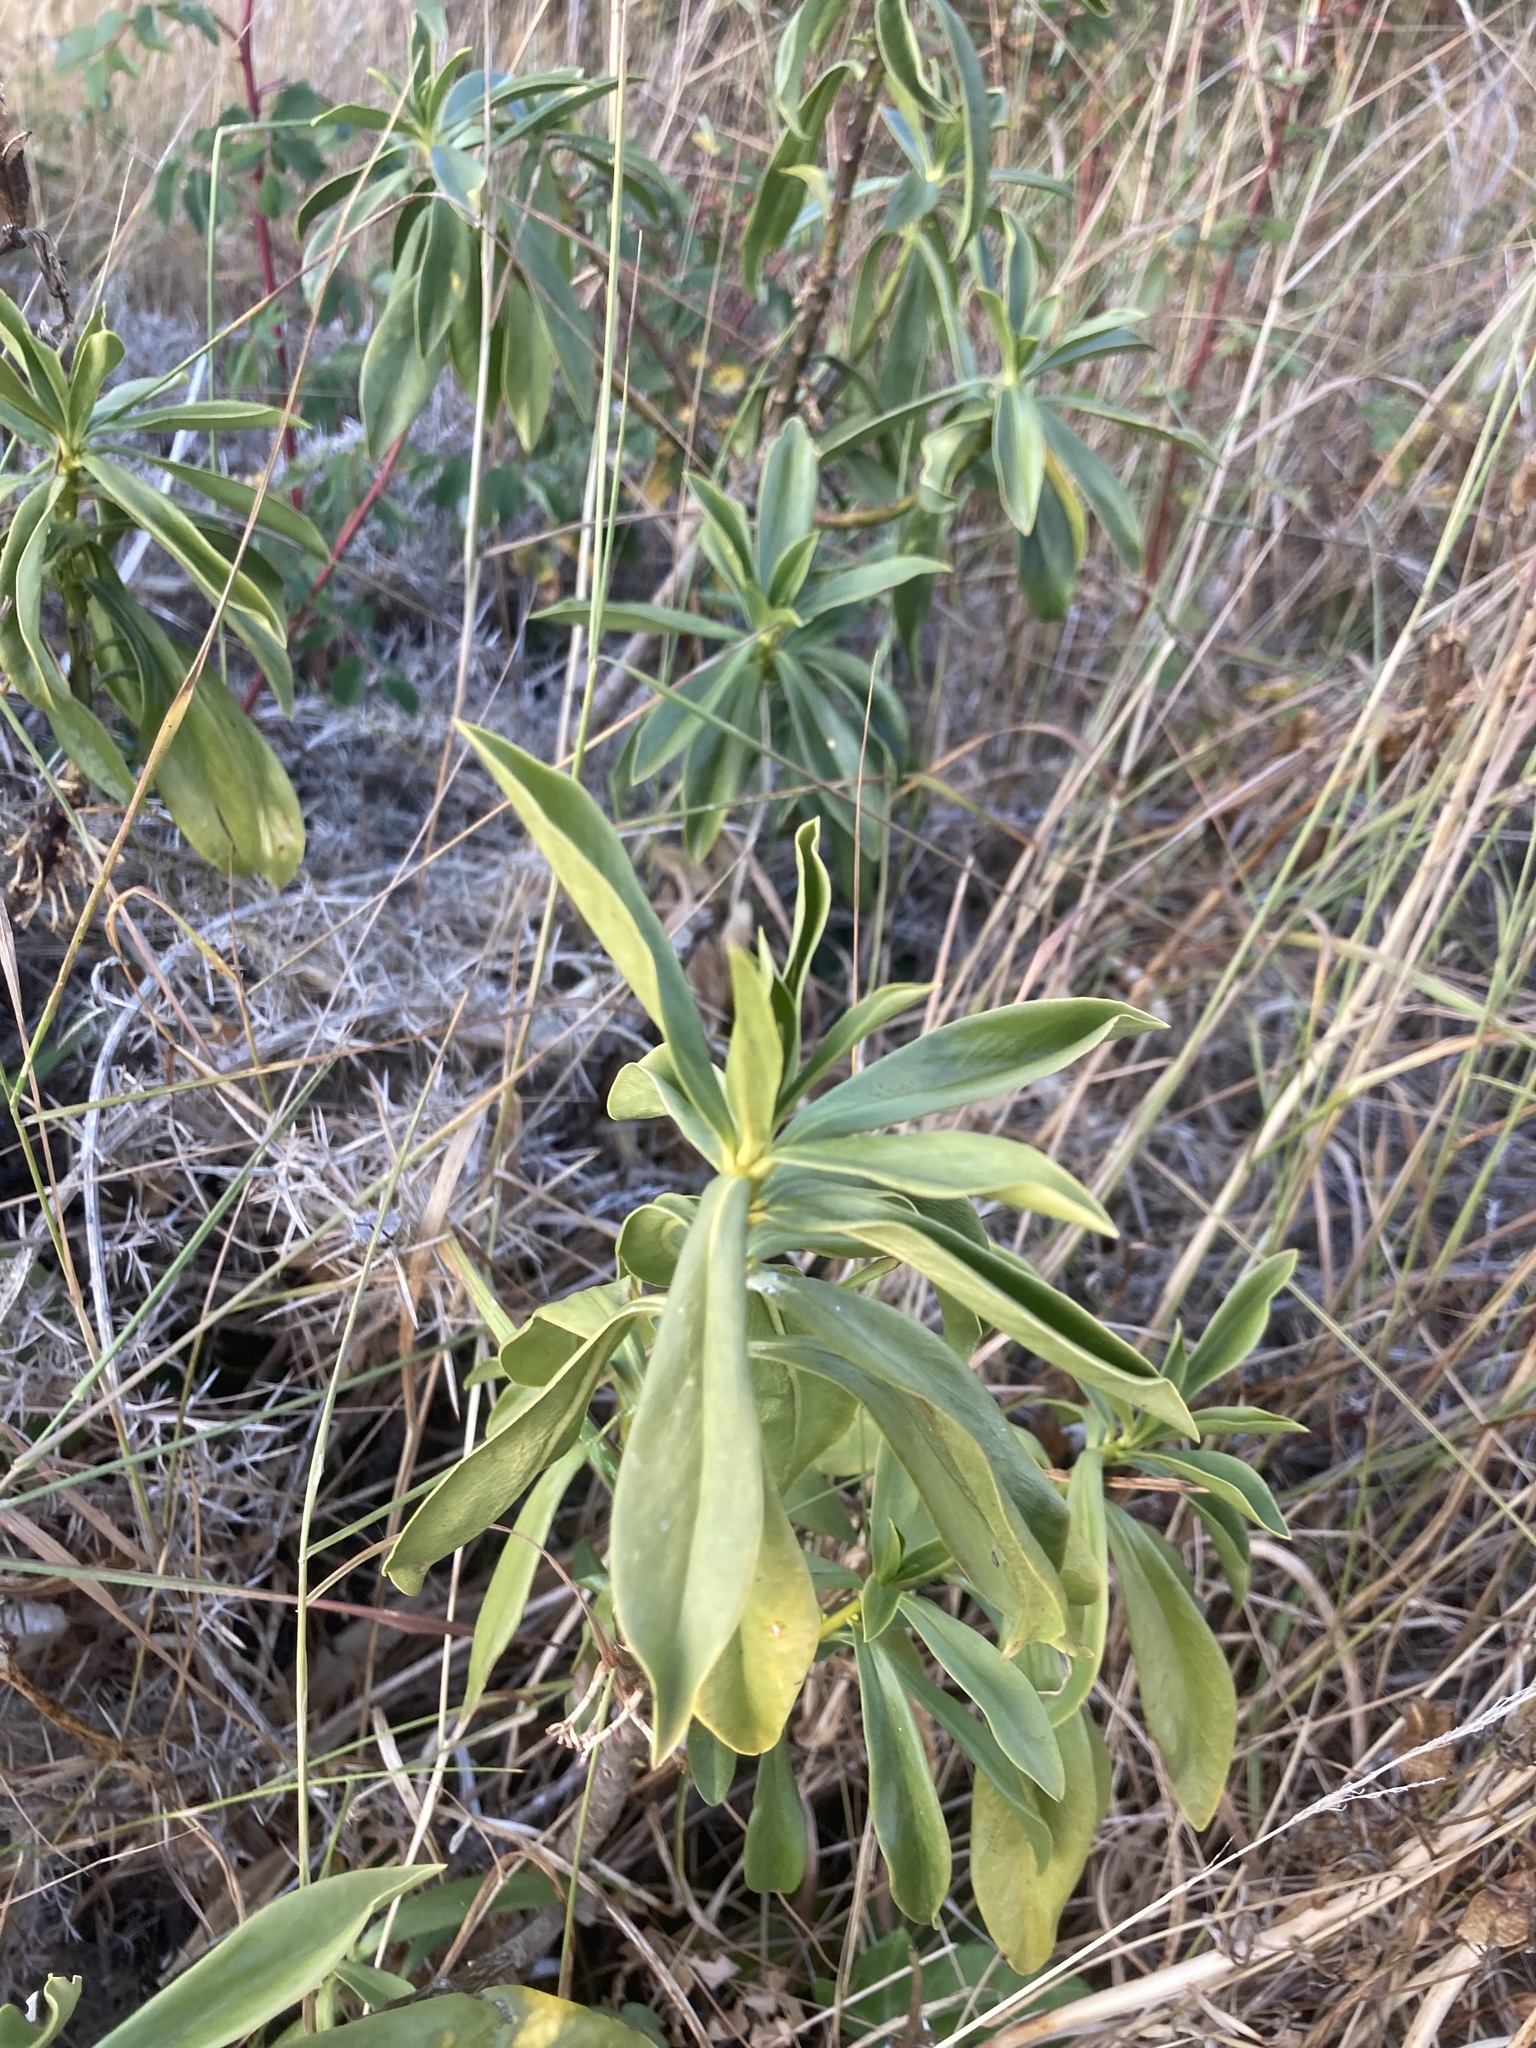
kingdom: Plantae
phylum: Tracheophyta
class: Magnoliopsida
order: Malvales
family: Thymelaeaceae
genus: Daphne
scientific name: Daphne laureola
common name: Spurge-laurel
